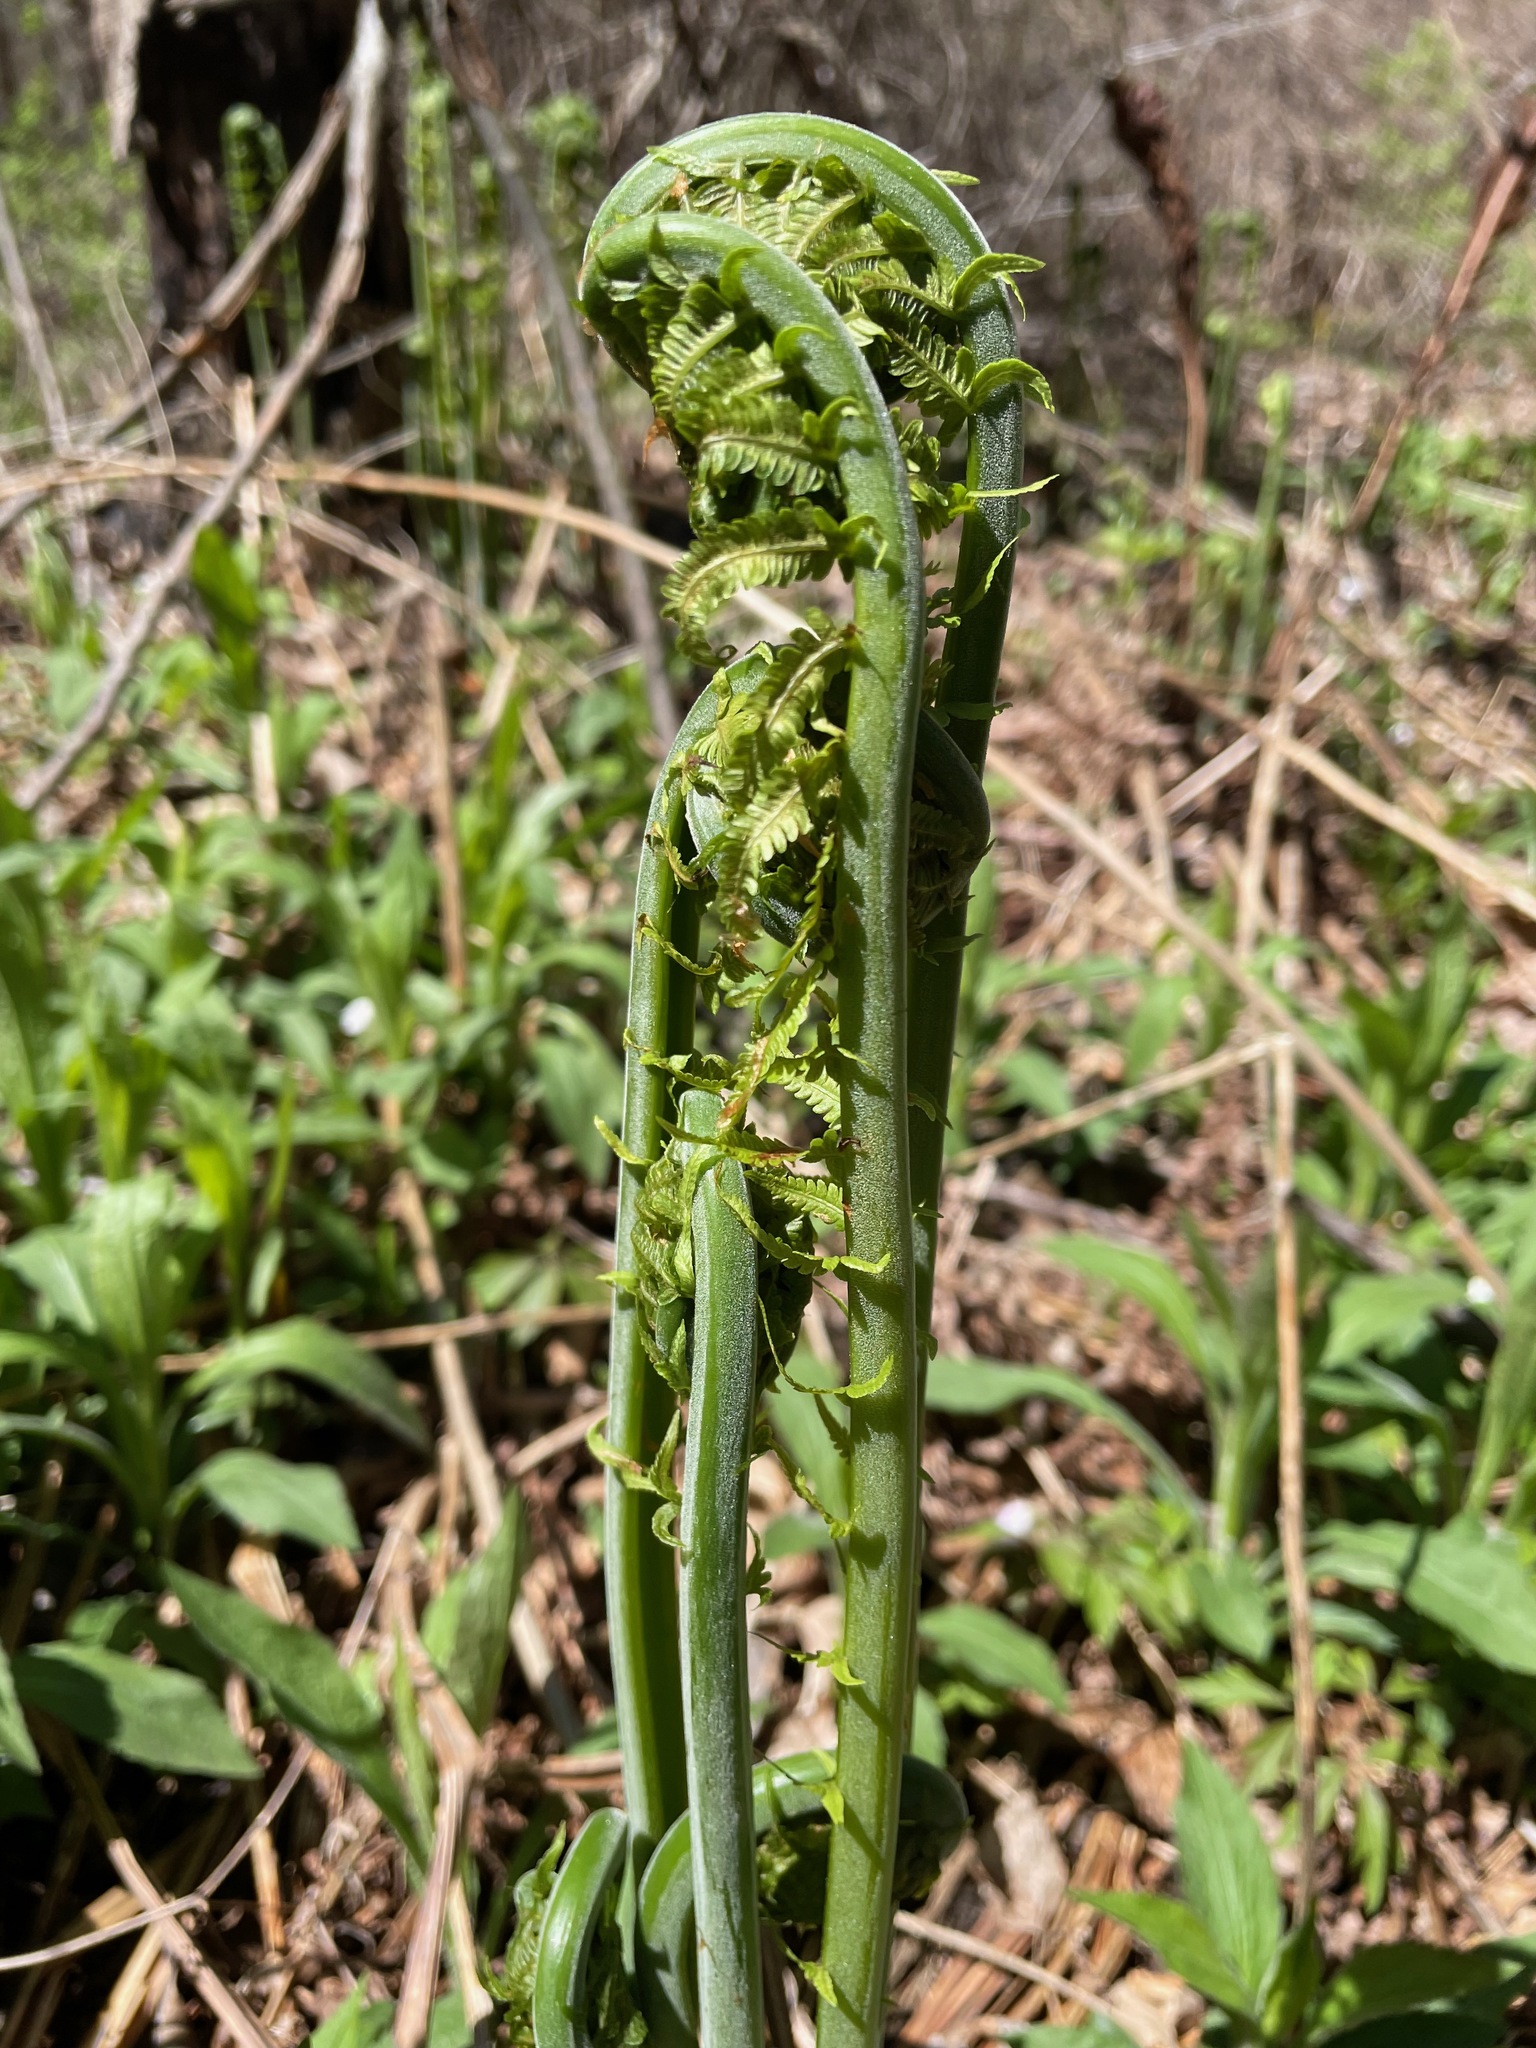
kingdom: Plantae
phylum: Tracheophyta
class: Polypodiopsida
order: Polypodiales
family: Onocleaceae
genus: Matteuccia
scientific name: Matteuccia struthiopteris
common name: Ostrich fern
